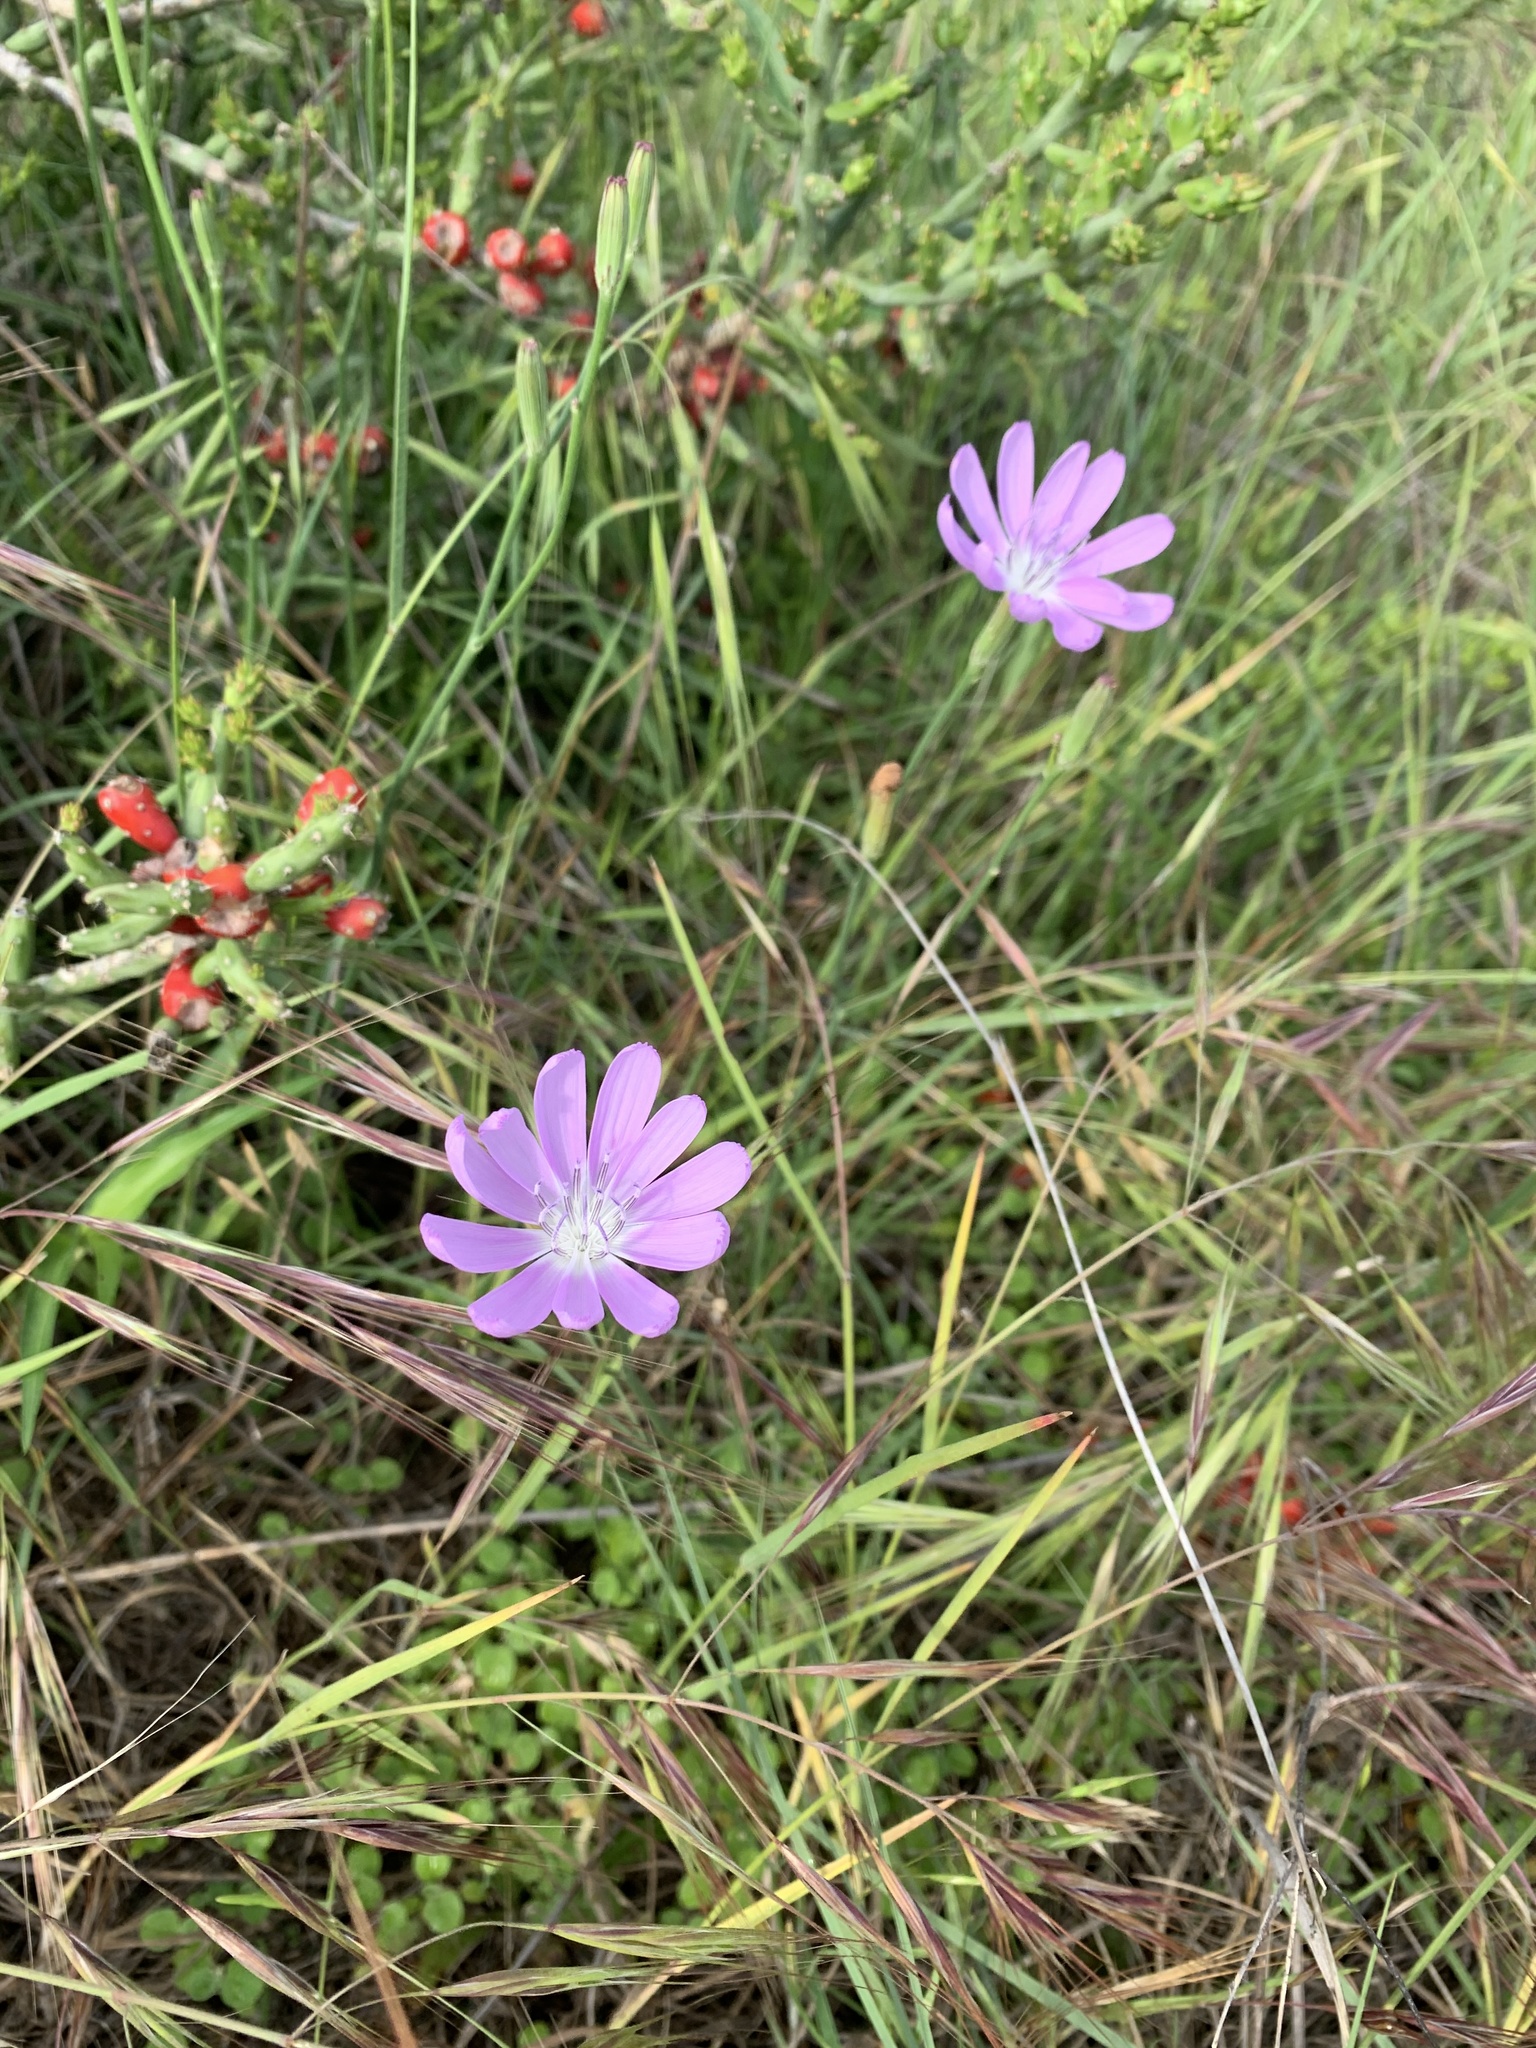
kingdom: Plantae
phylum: Tracheophyta
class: Magnoliopsida
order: Asterales
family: Asteraceae
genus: Lygodesmia
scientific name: Lygodesmia texana
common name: Texas skeleton-plant
